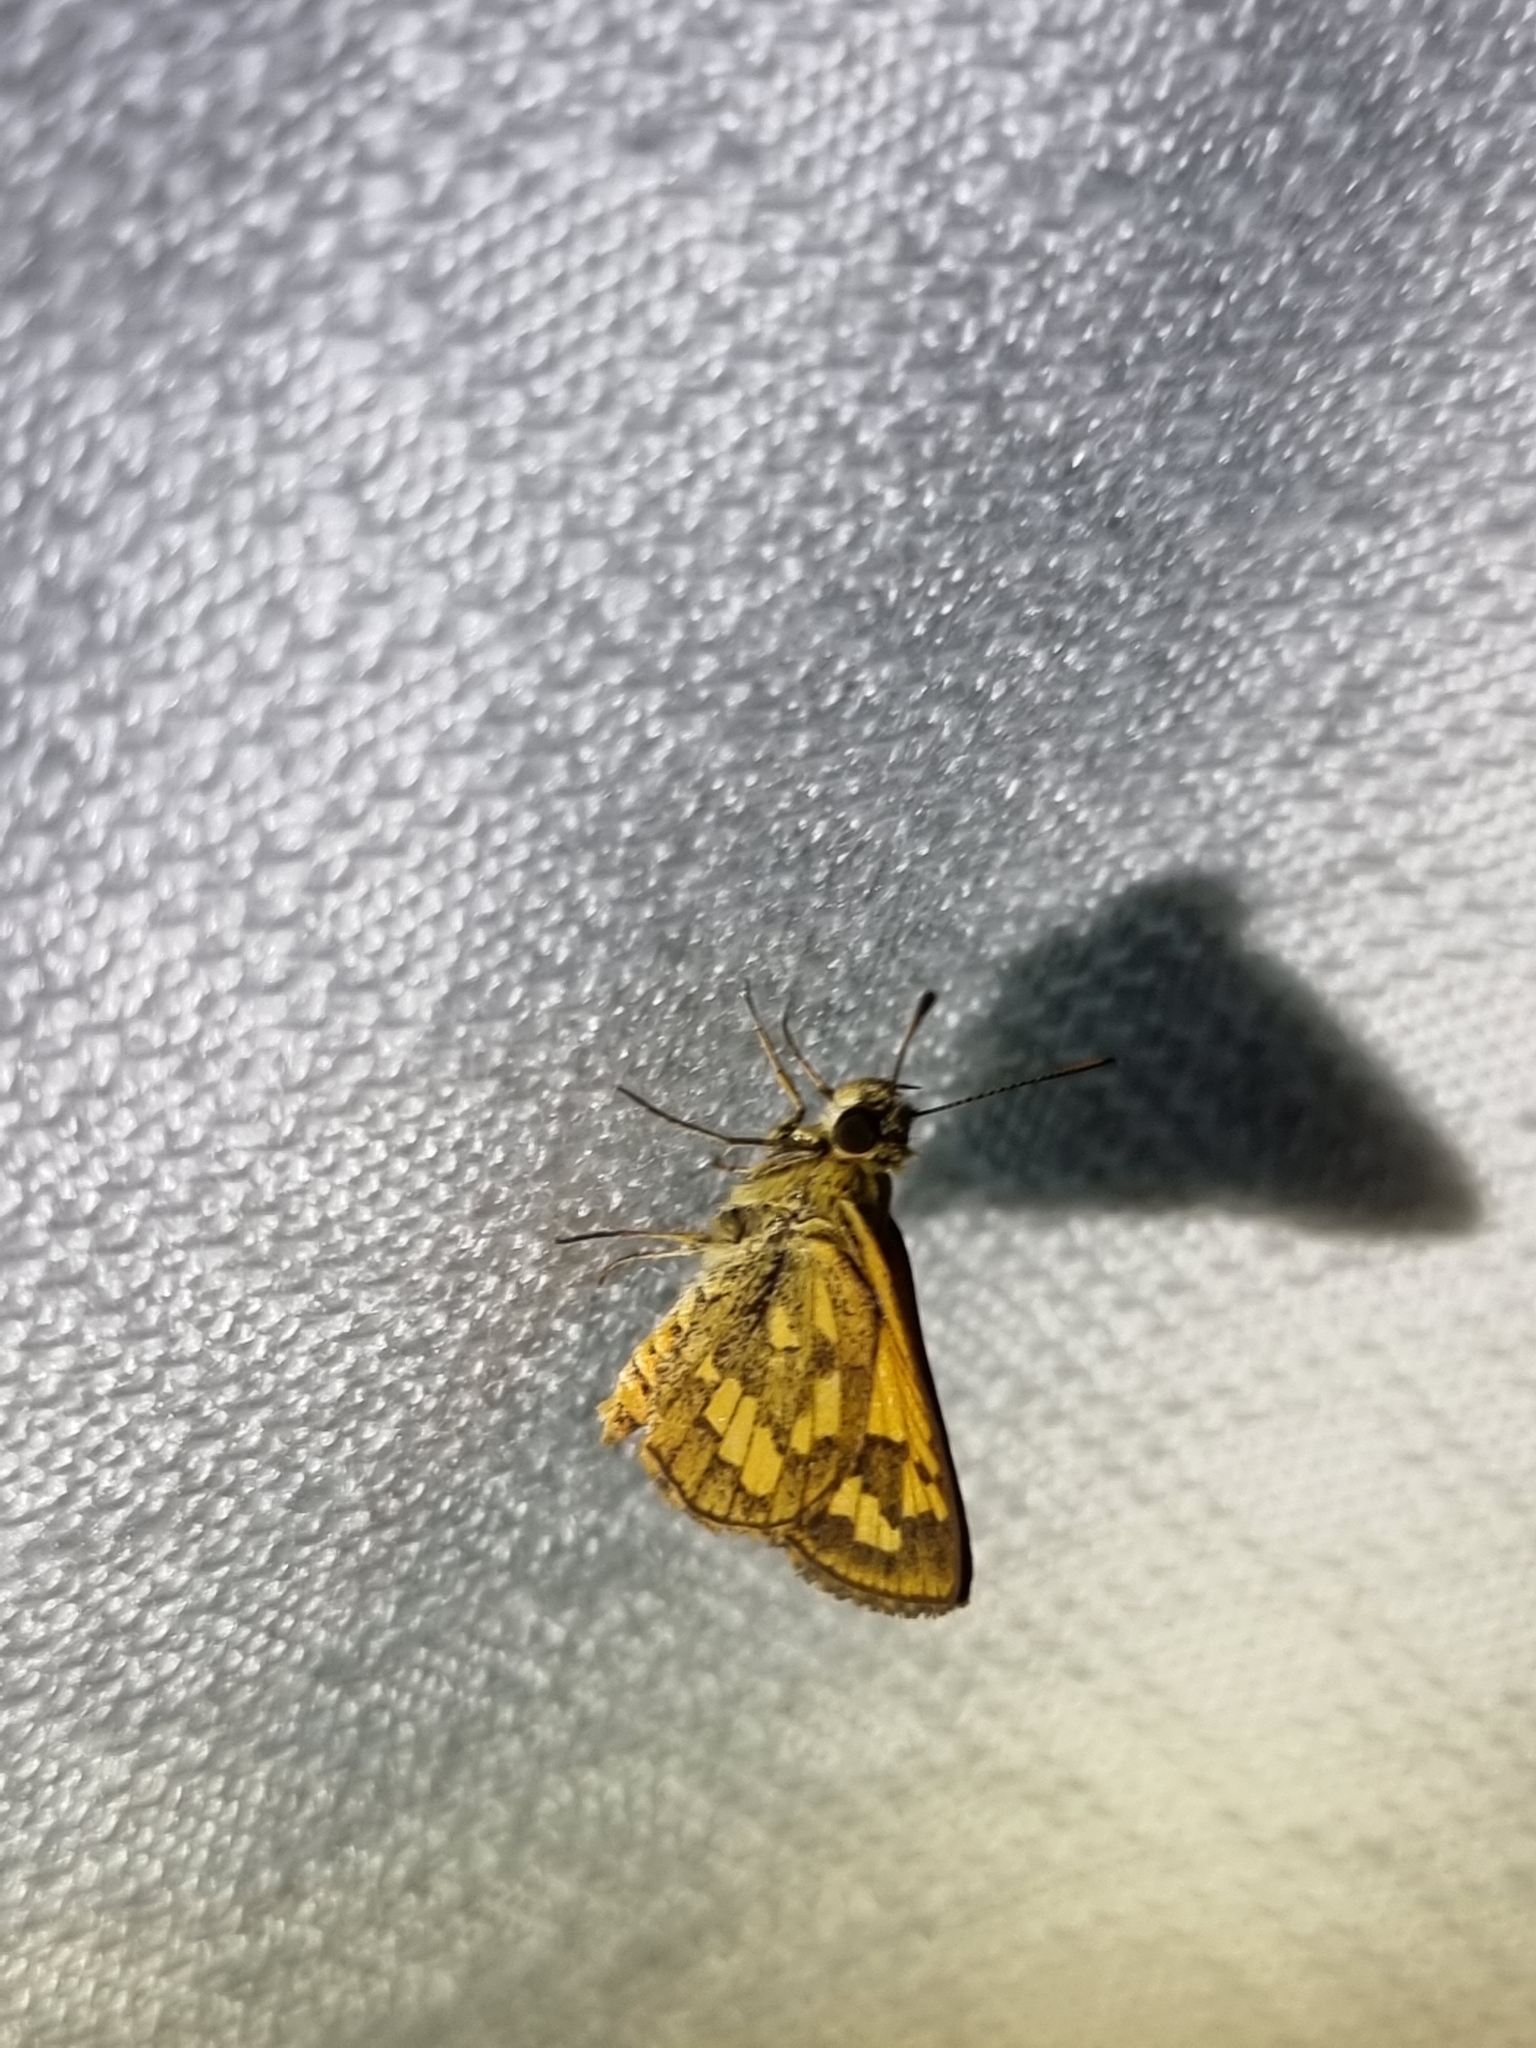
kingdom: Animalia
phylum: Arthropoda
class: Insecta
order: Lepidoptera
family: Hesperiidae
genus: Suniana
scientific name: Suniana sunias
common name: Wide-brand grass-dart
